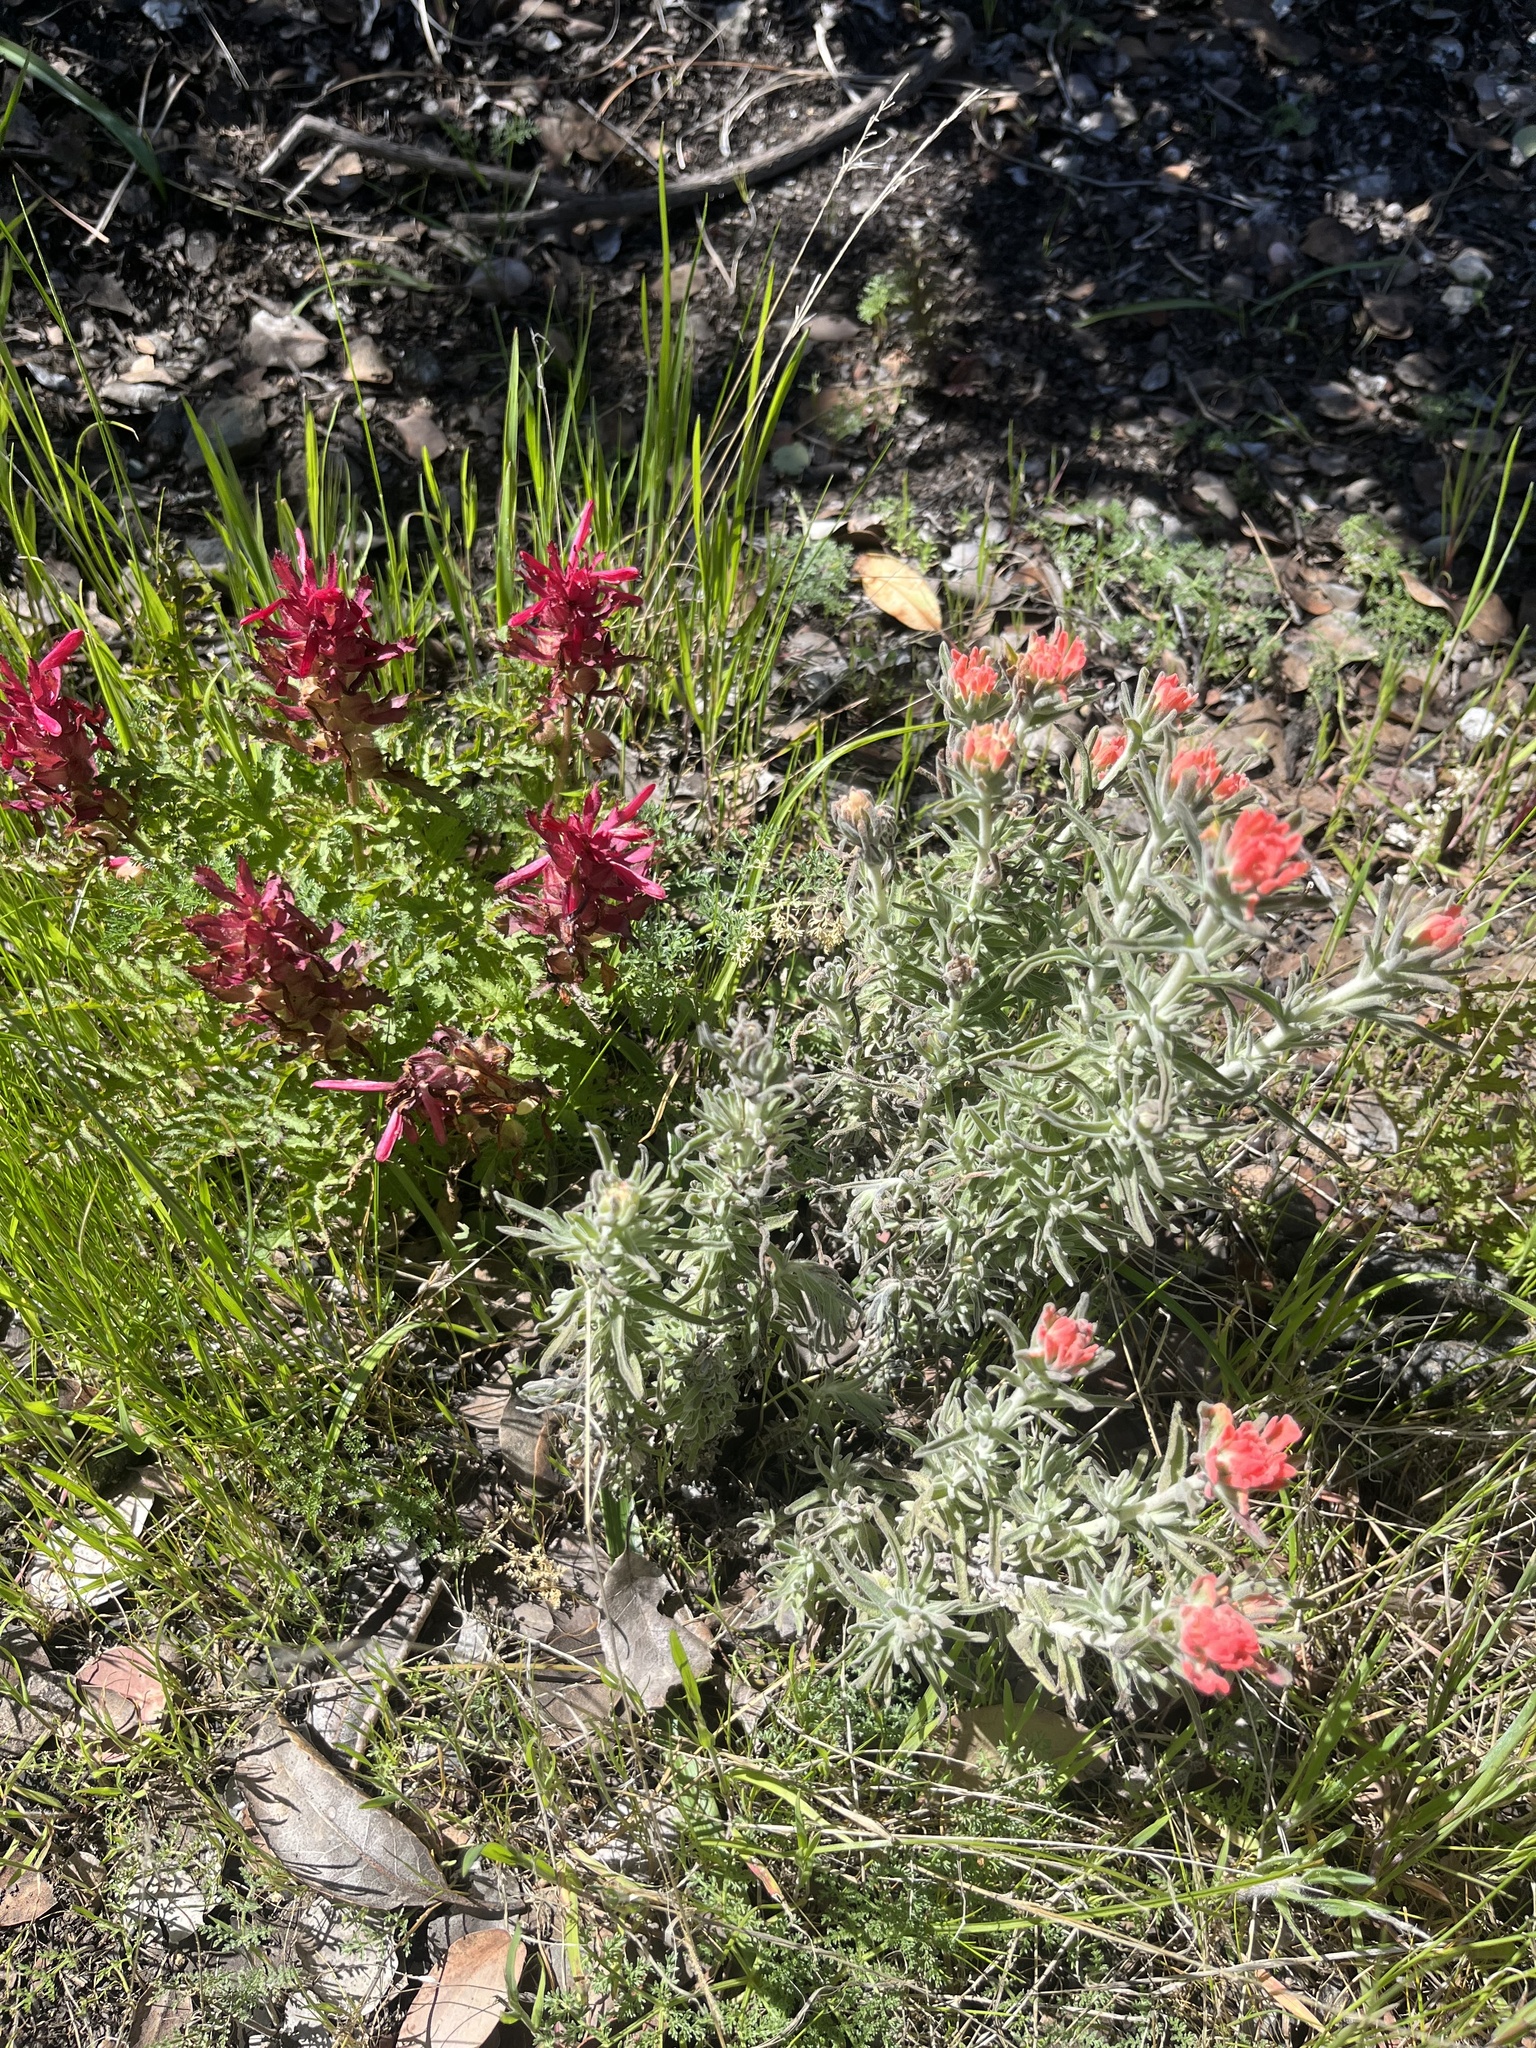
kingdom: Plantae
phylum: Tracheophyta
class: Magnoliopsida
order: Lamiales
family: Orobanchaceae
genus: Pedicularis
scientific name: Pedicularis densiflora
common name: Indian warrior
